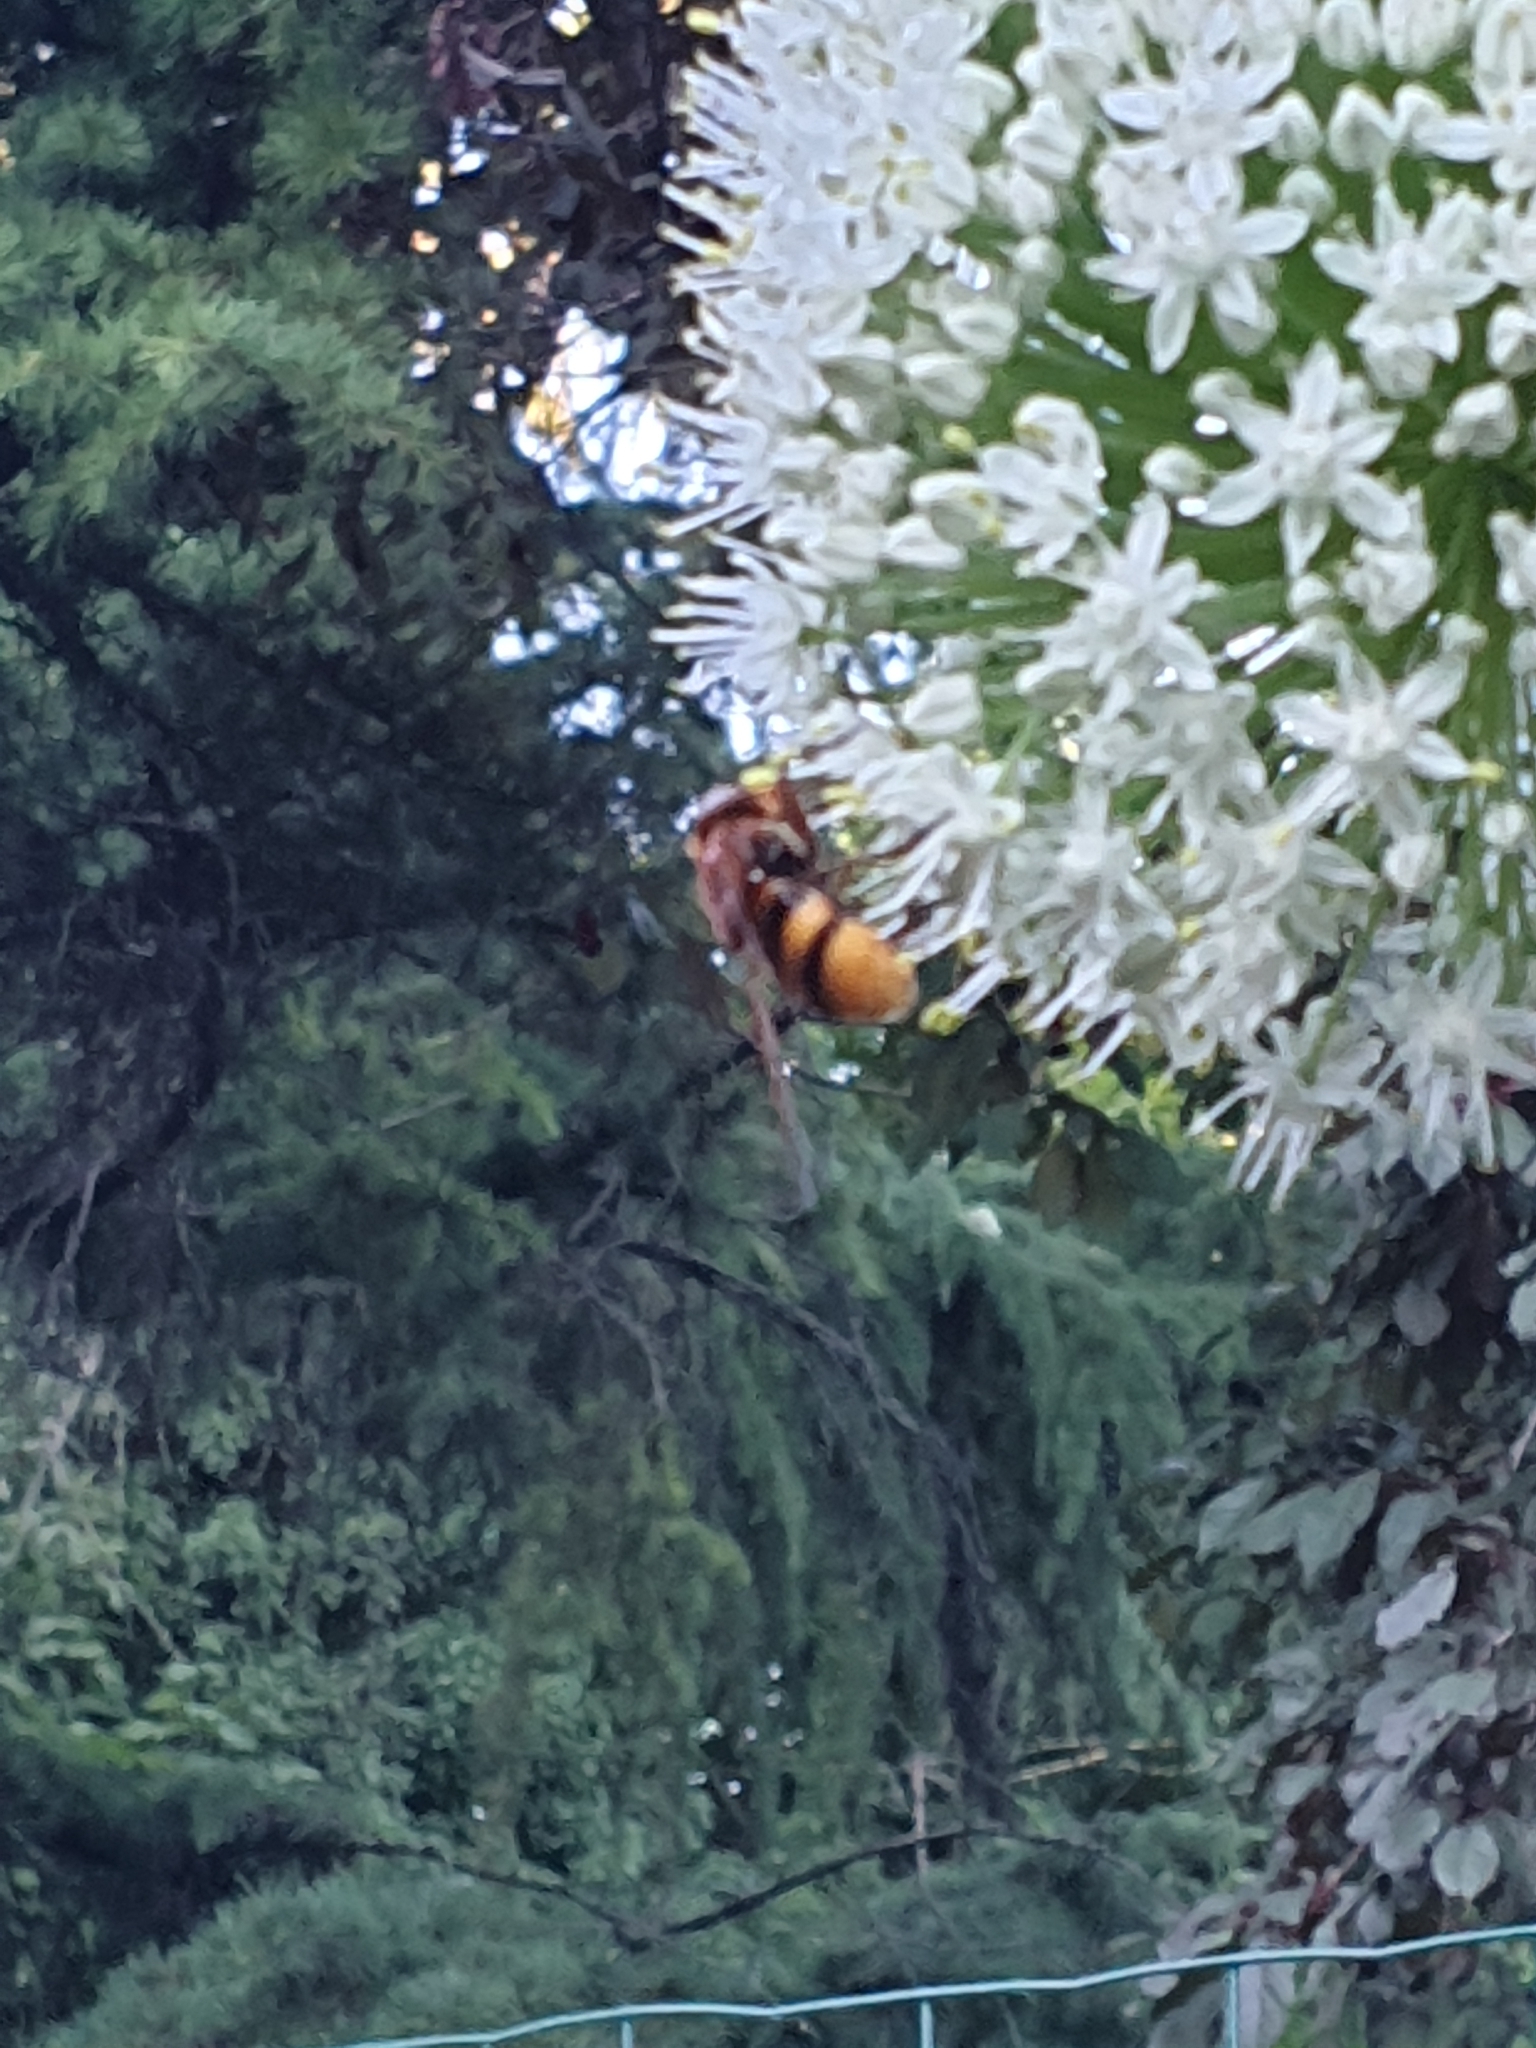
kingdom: Animalia
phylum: Arthropoda
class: Insecta
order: Diptera
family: Syrphidae
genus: Volucella
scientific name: Volucella zonaria
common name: Hornet hoverfly
